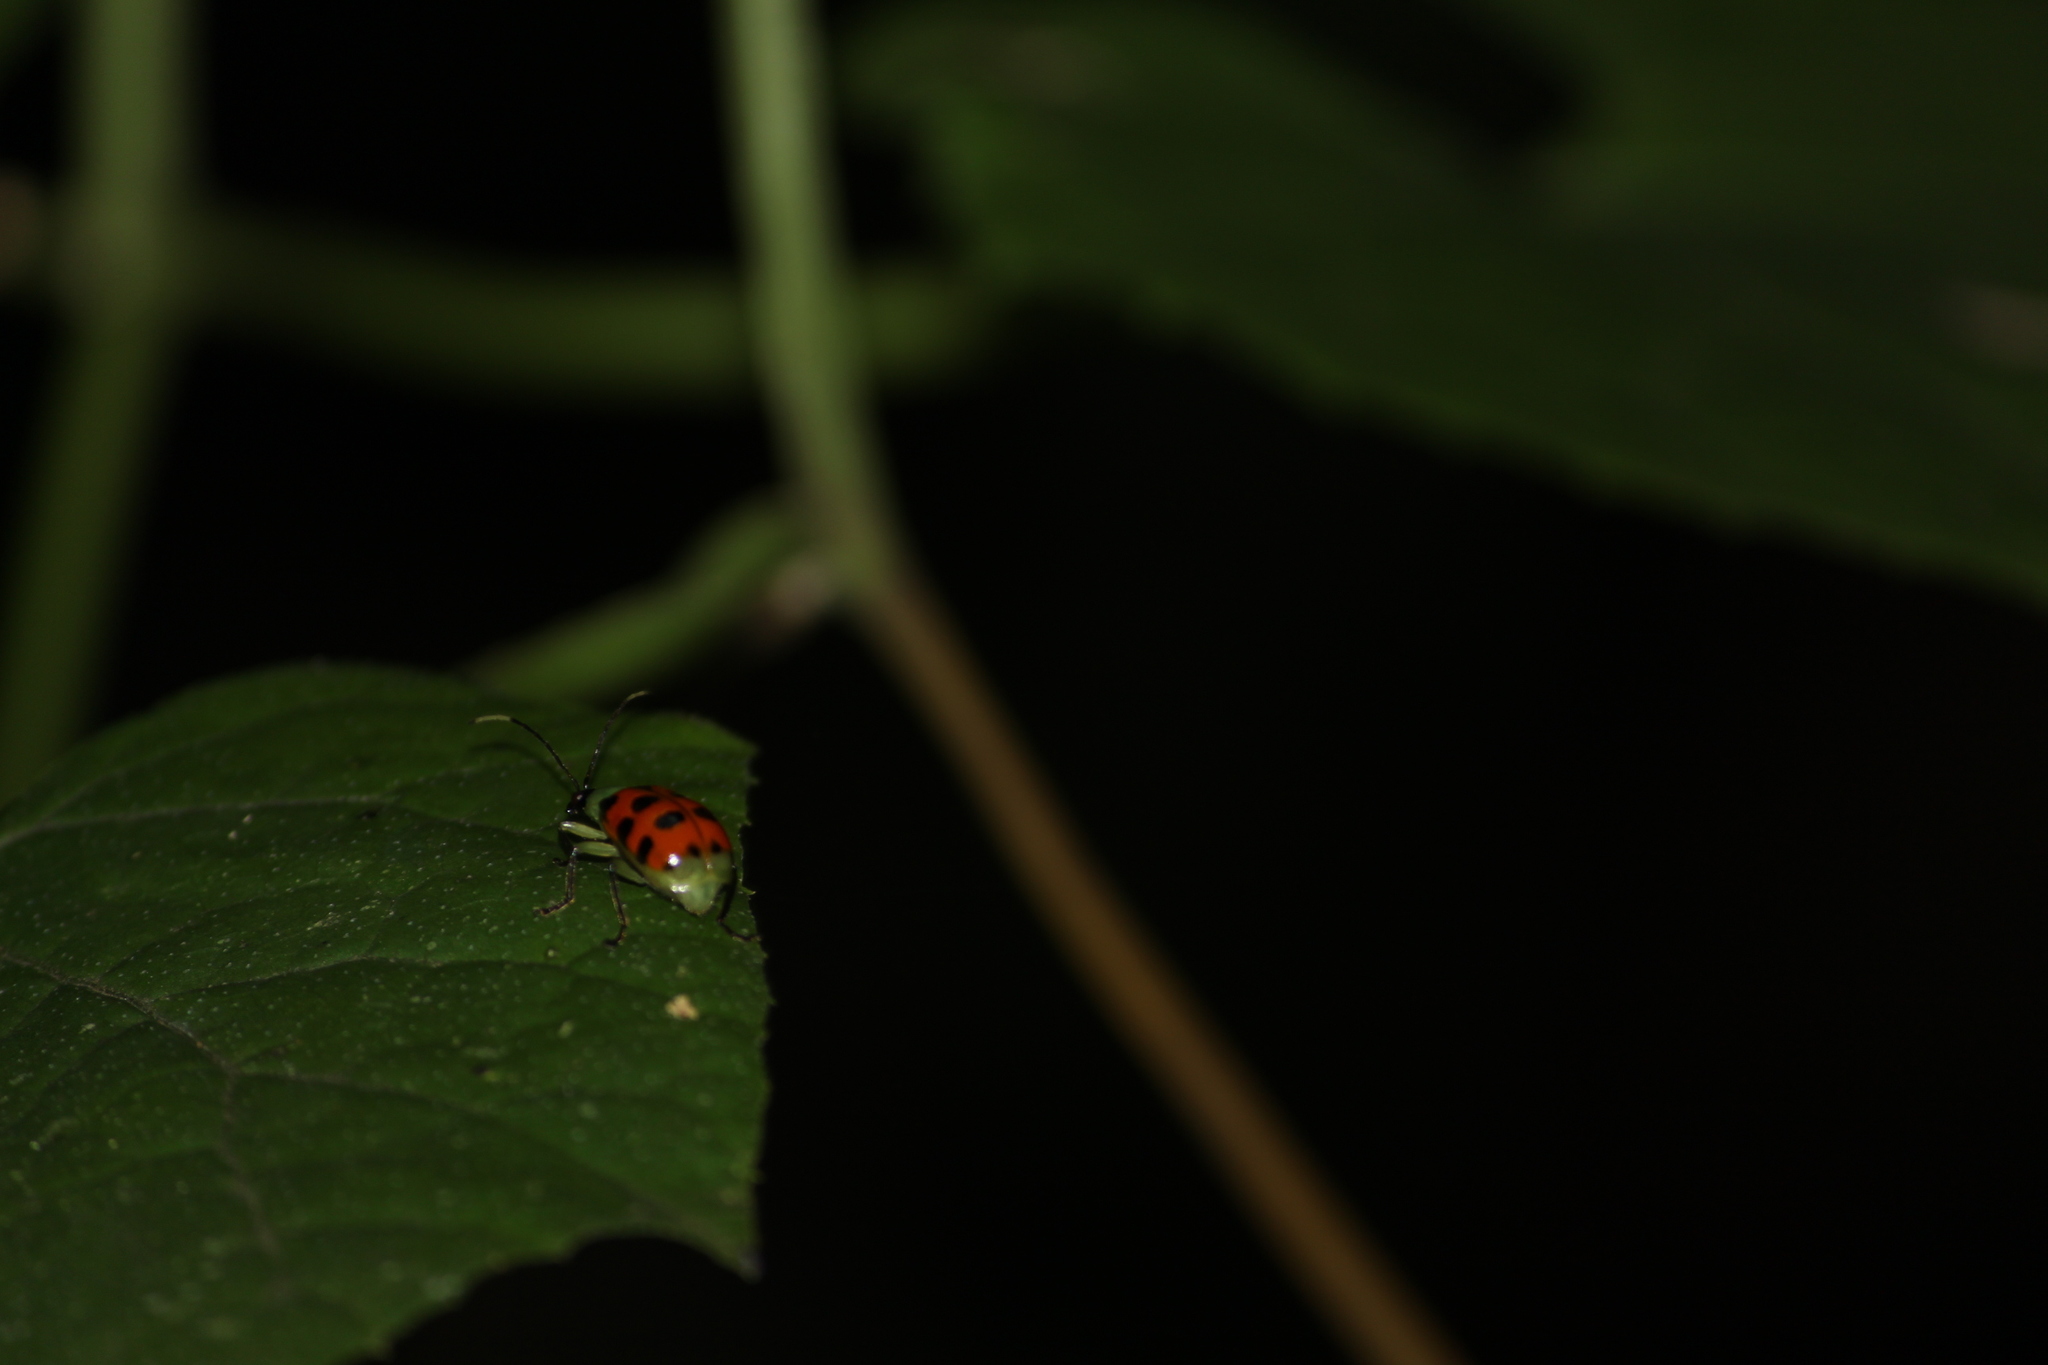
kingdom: Animalia
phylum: Arthropoda
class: Insecta
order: Coleoptera
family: Chrysomelidae
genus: Diabrotica
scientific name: Diabrotica limitata
